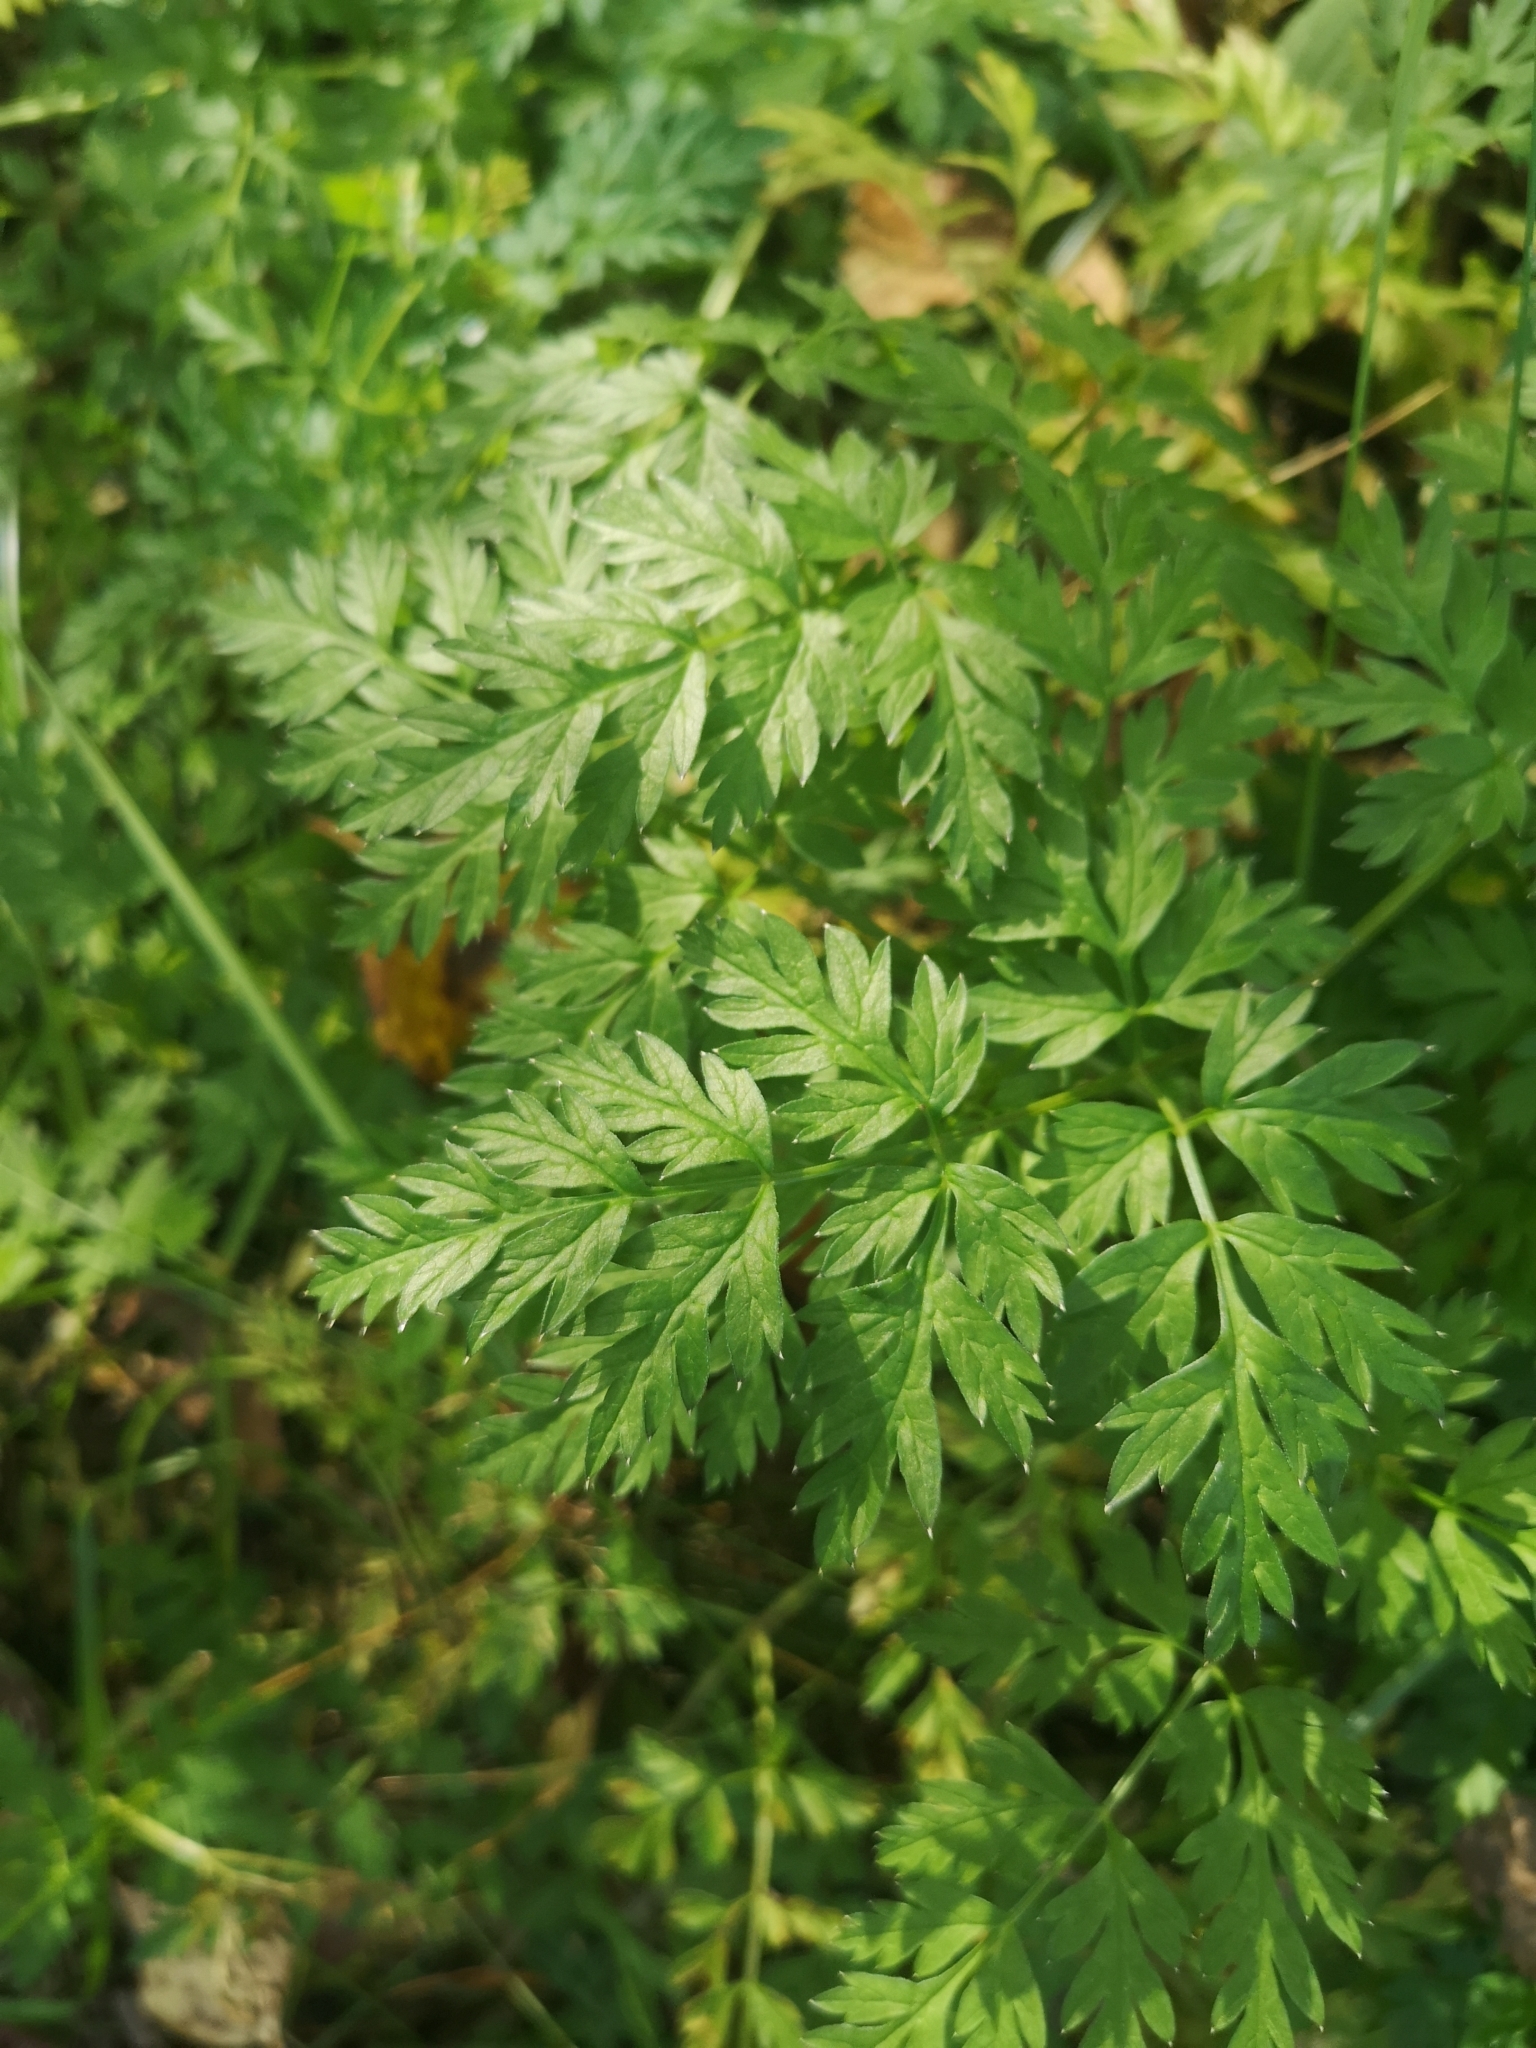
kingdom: Plantae
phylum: Tracheophyta
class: Magnoliopsida
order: Apiales
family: Apiaceae
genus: Anthriscus
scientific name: Anthriscus sylvestris
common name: Cow parsley
